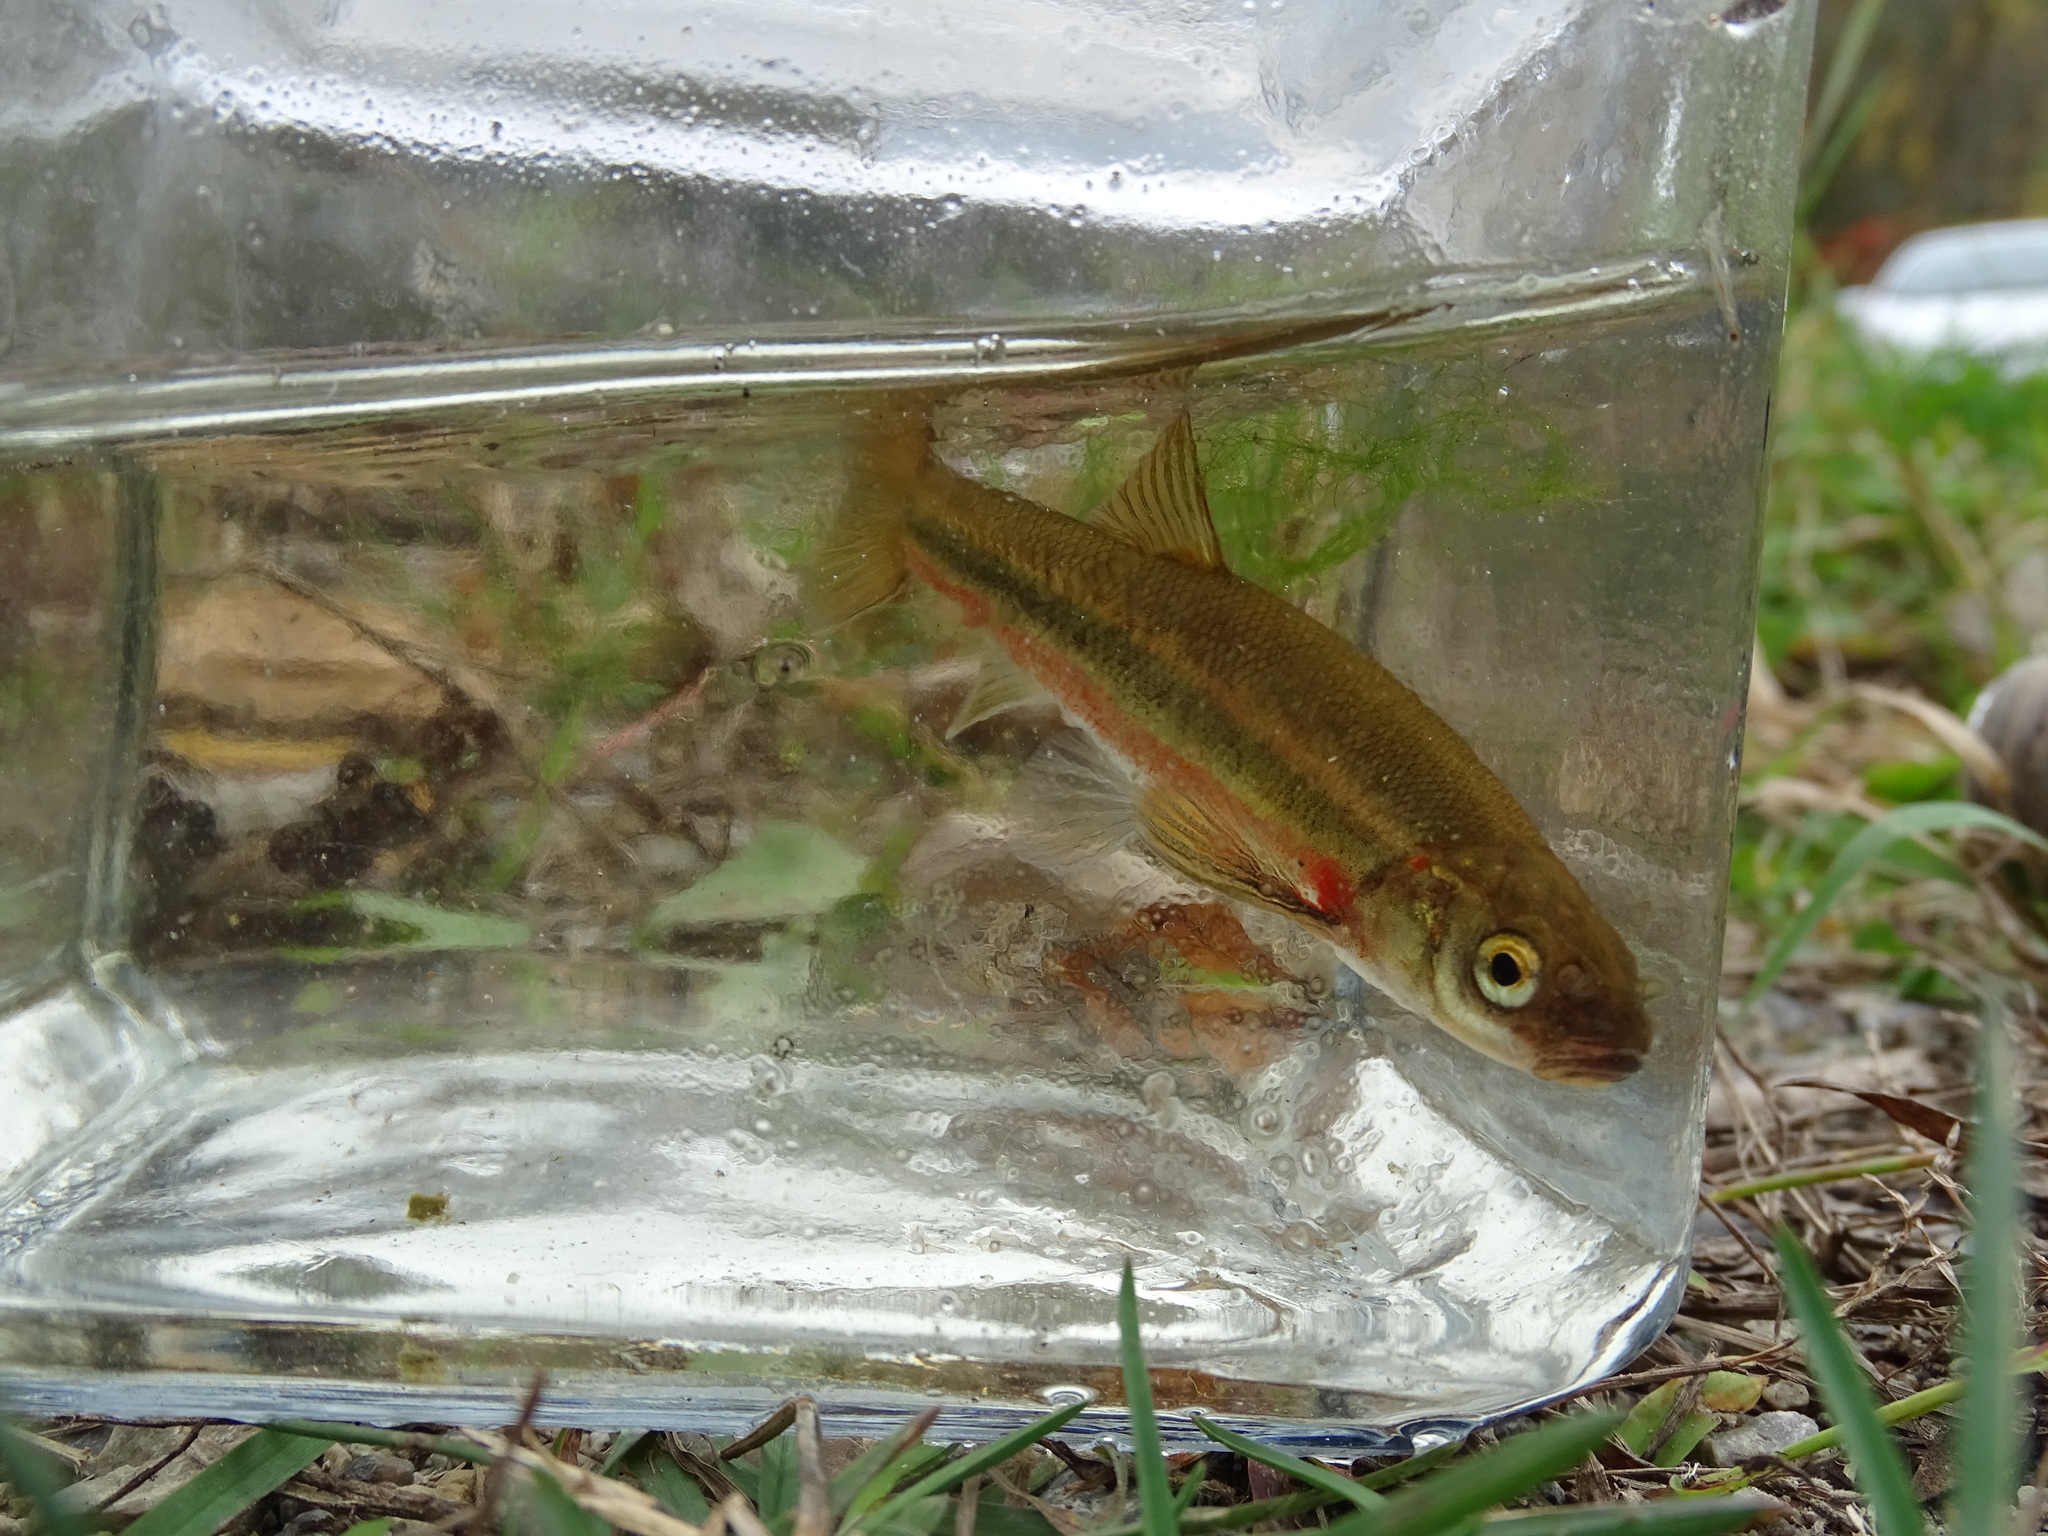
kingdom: Animalia
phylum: Chordata
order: Cypriniformes
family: Cyprinidae
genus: Margariscus
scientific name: Margariscus nachtriebi
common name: Northern pearl dace
